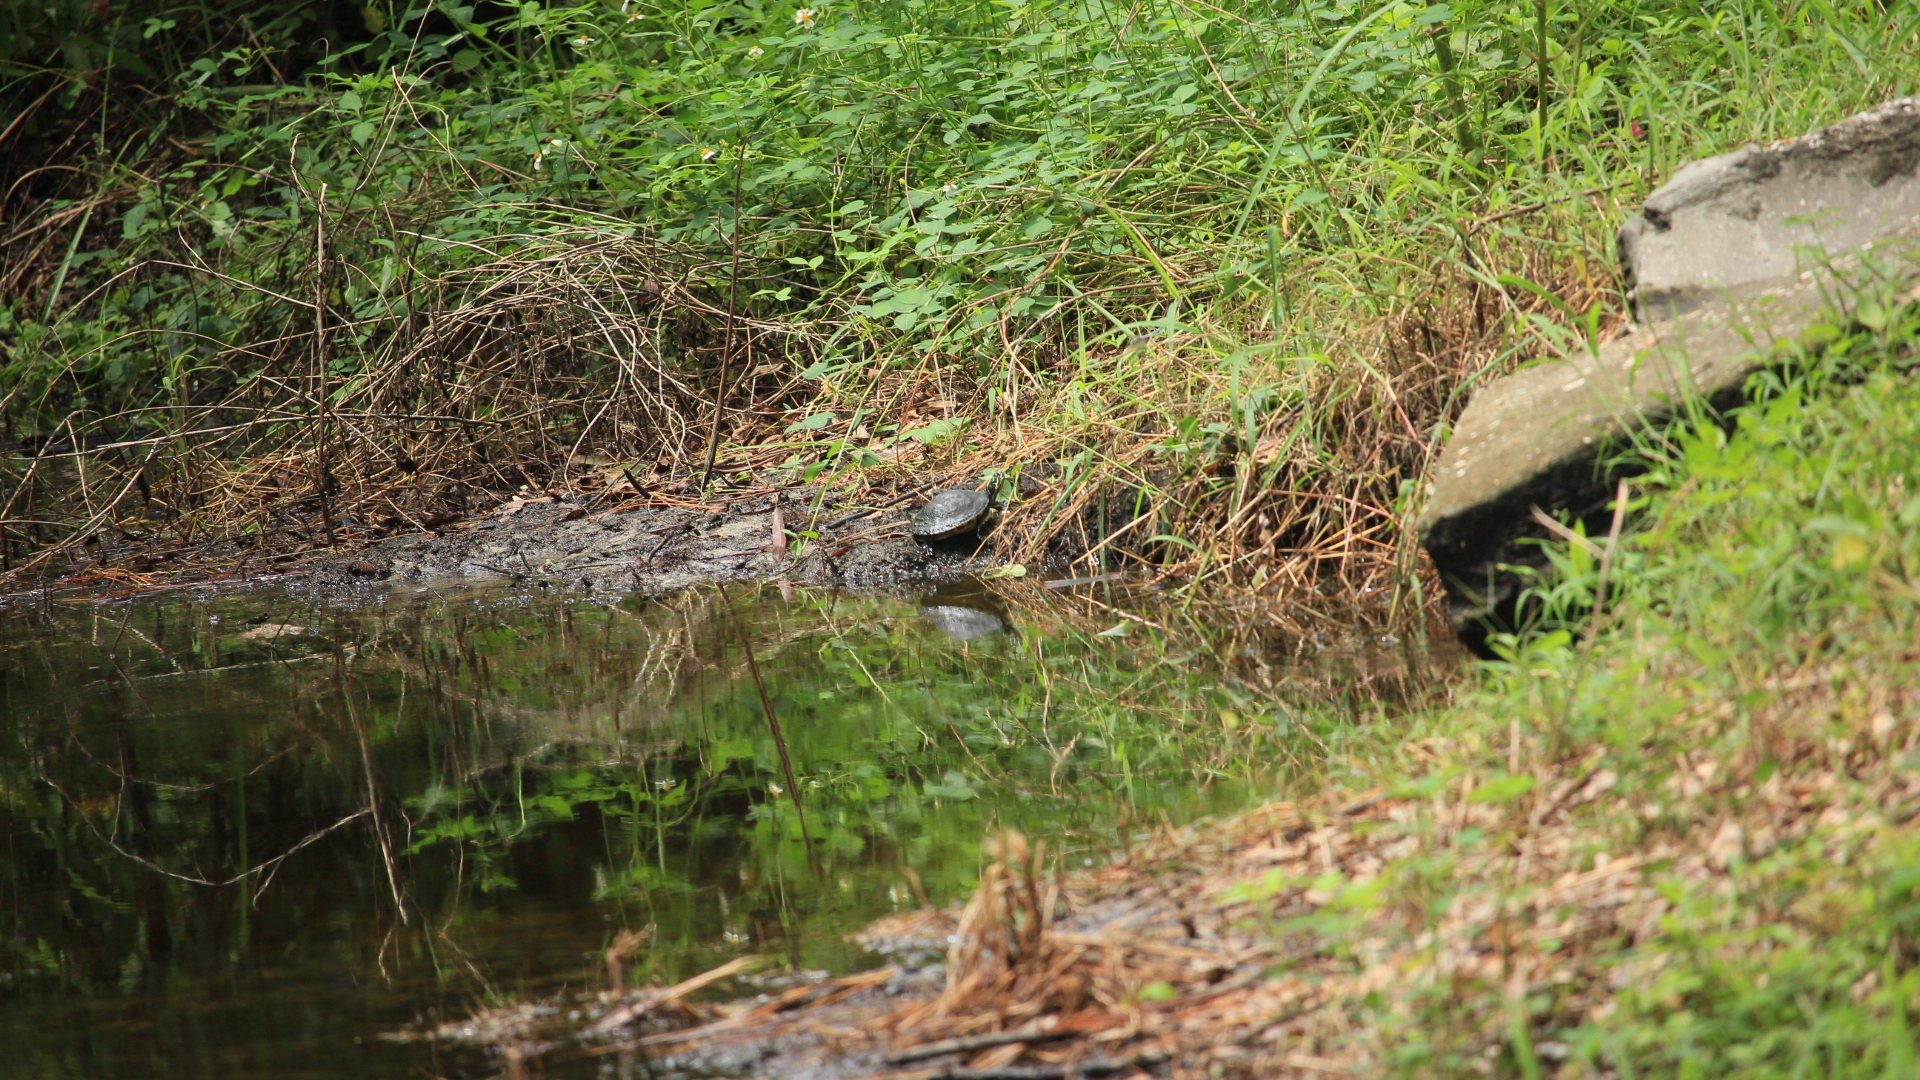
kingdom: Animalia
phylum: Chordata
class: Testudines
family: Emydidae
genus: Trachemys
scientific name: Trachemys scripta
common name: Slider
